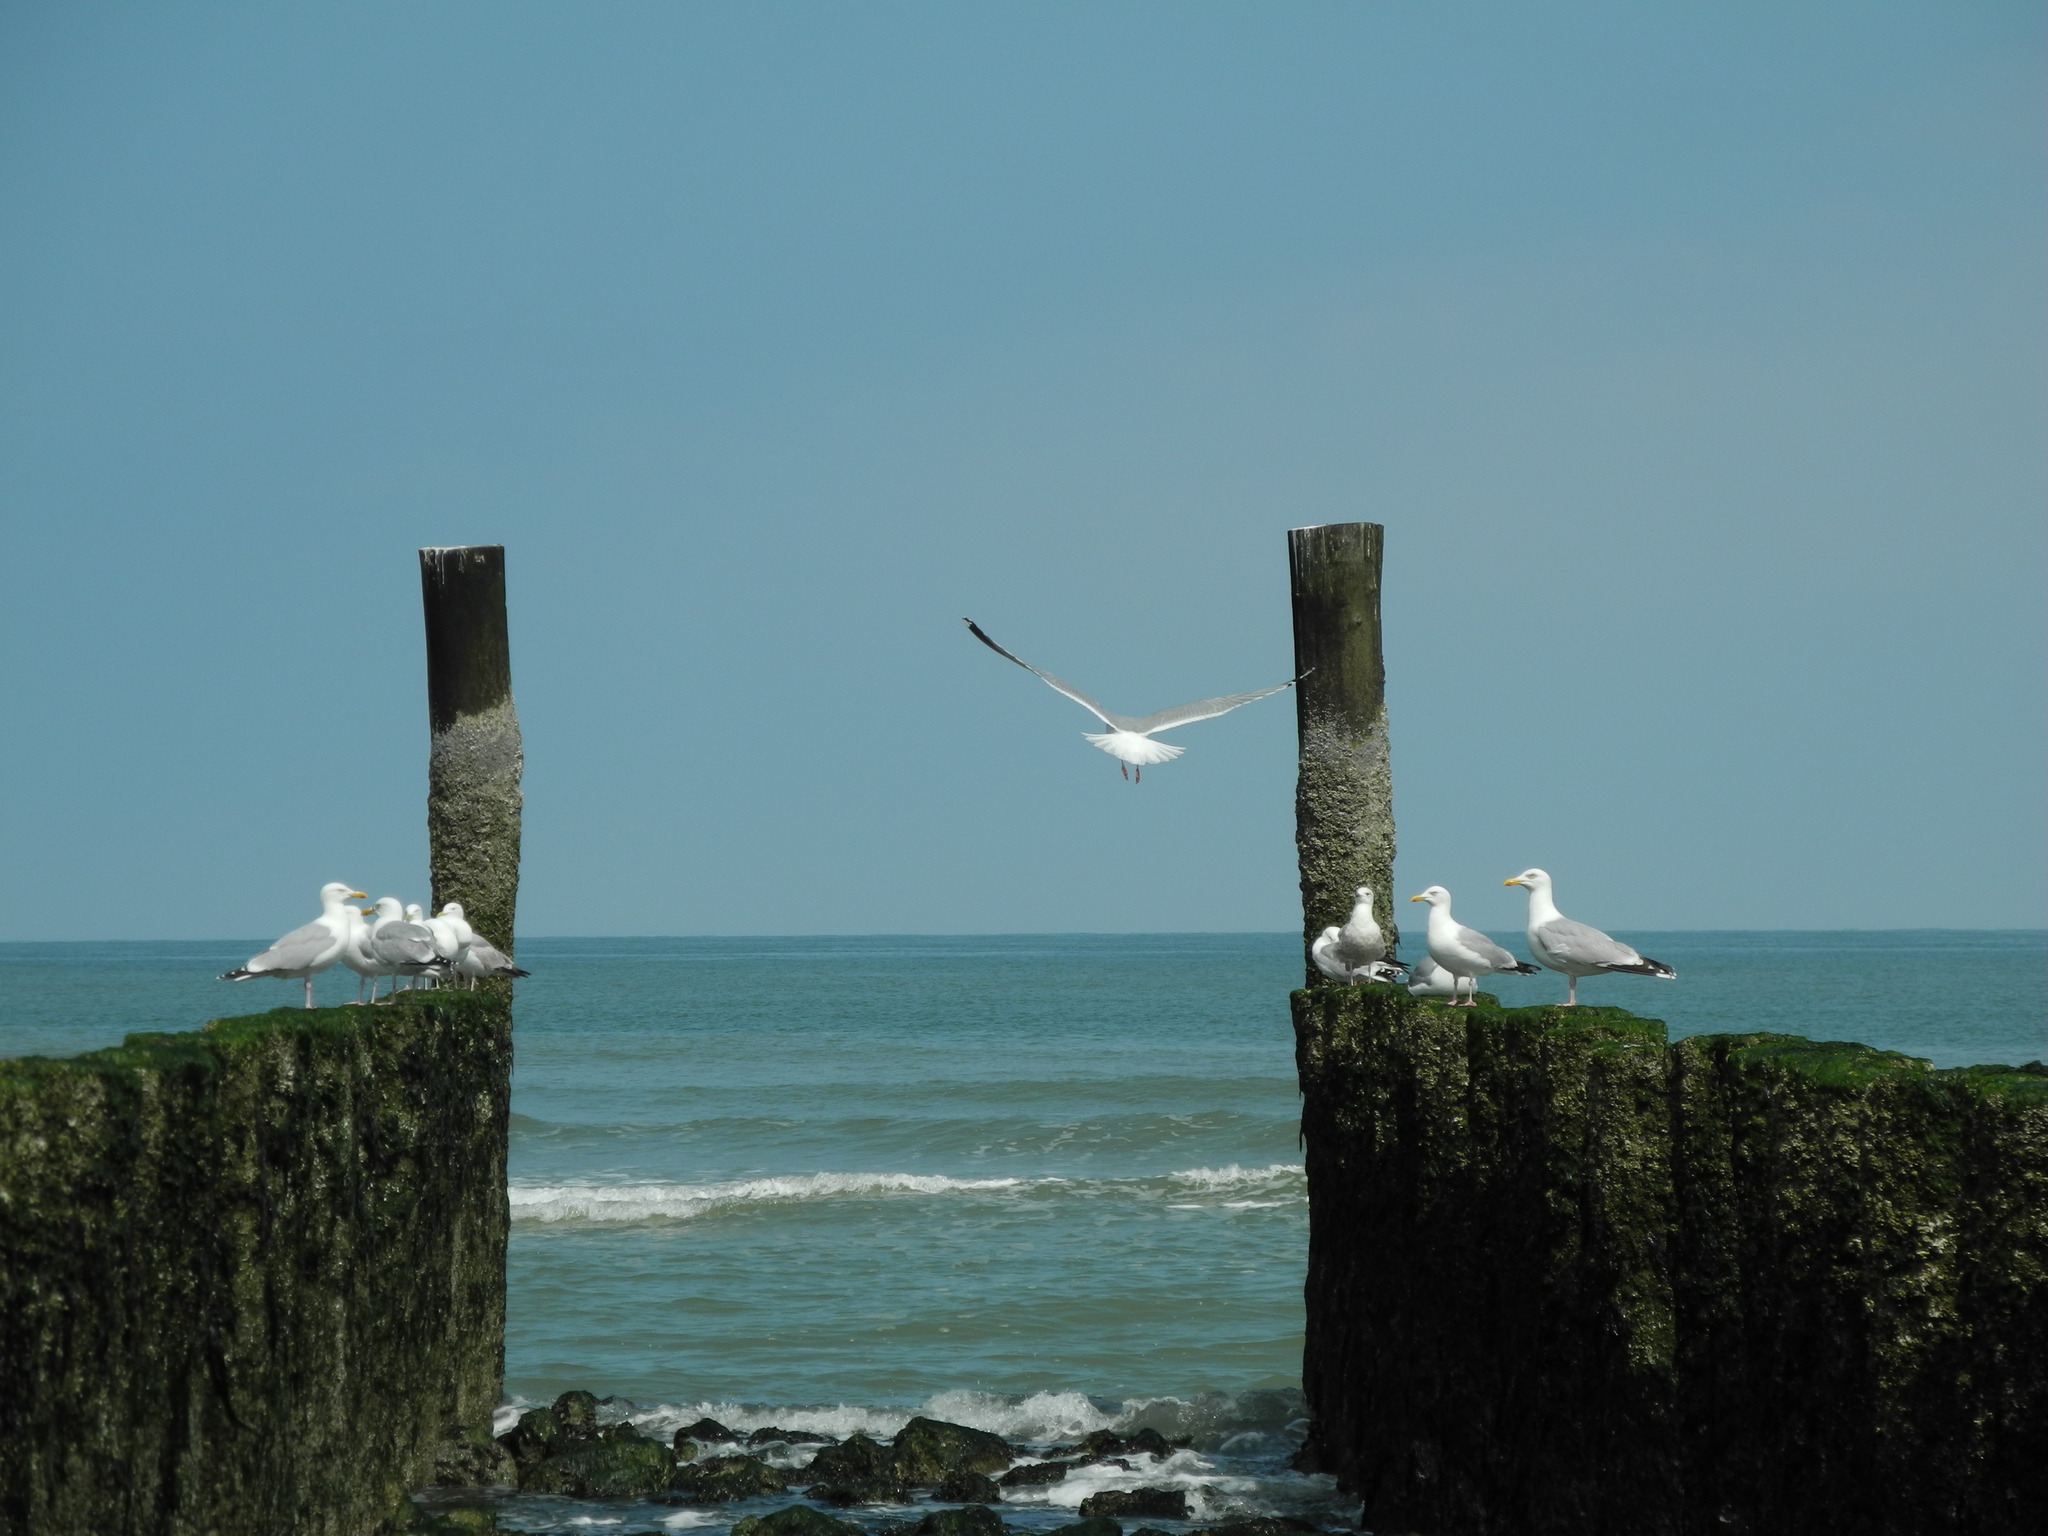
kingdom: Animalia
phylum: Chordata
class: Aves
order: Charadriiformes
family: Laridae
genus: Larus
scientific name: Larus argentatus
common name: Herring gull
